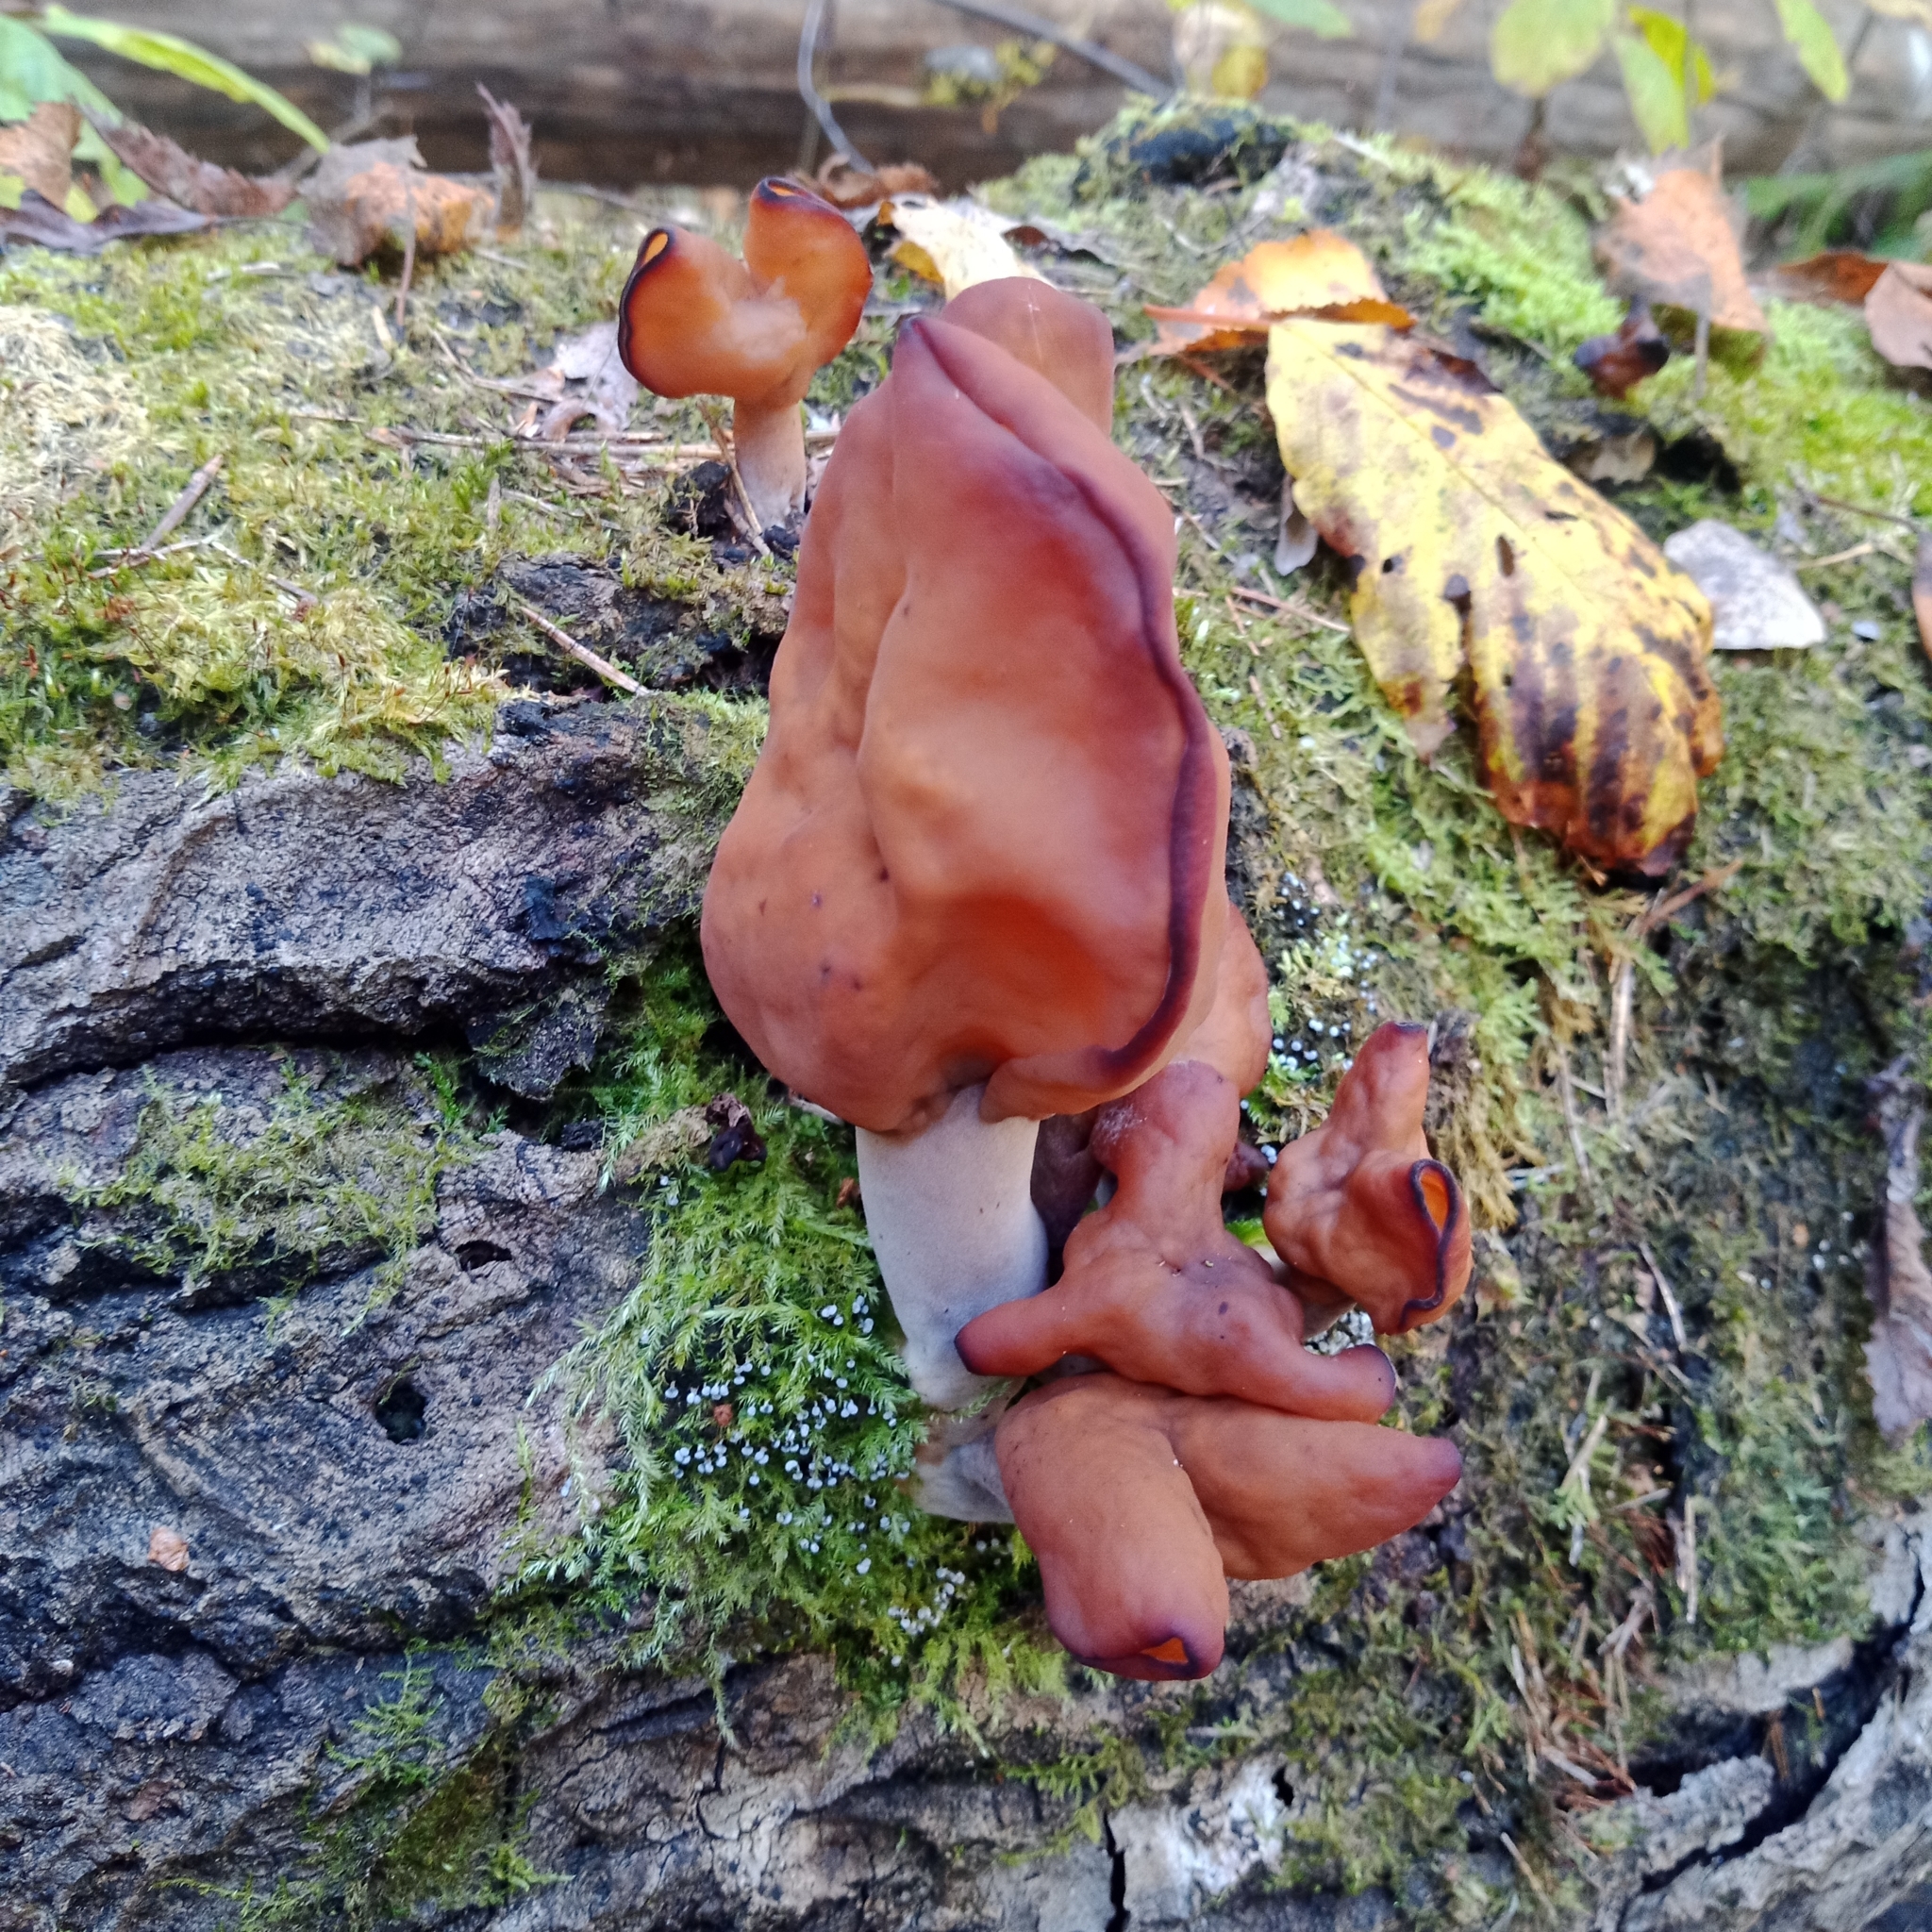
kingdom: Fungi
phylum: Ascomycota
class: Pezizomycetes
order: Pezizales
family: Discinaceae
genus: Gyromitra
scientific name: Gyromitra infula
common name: Pouched false morel
